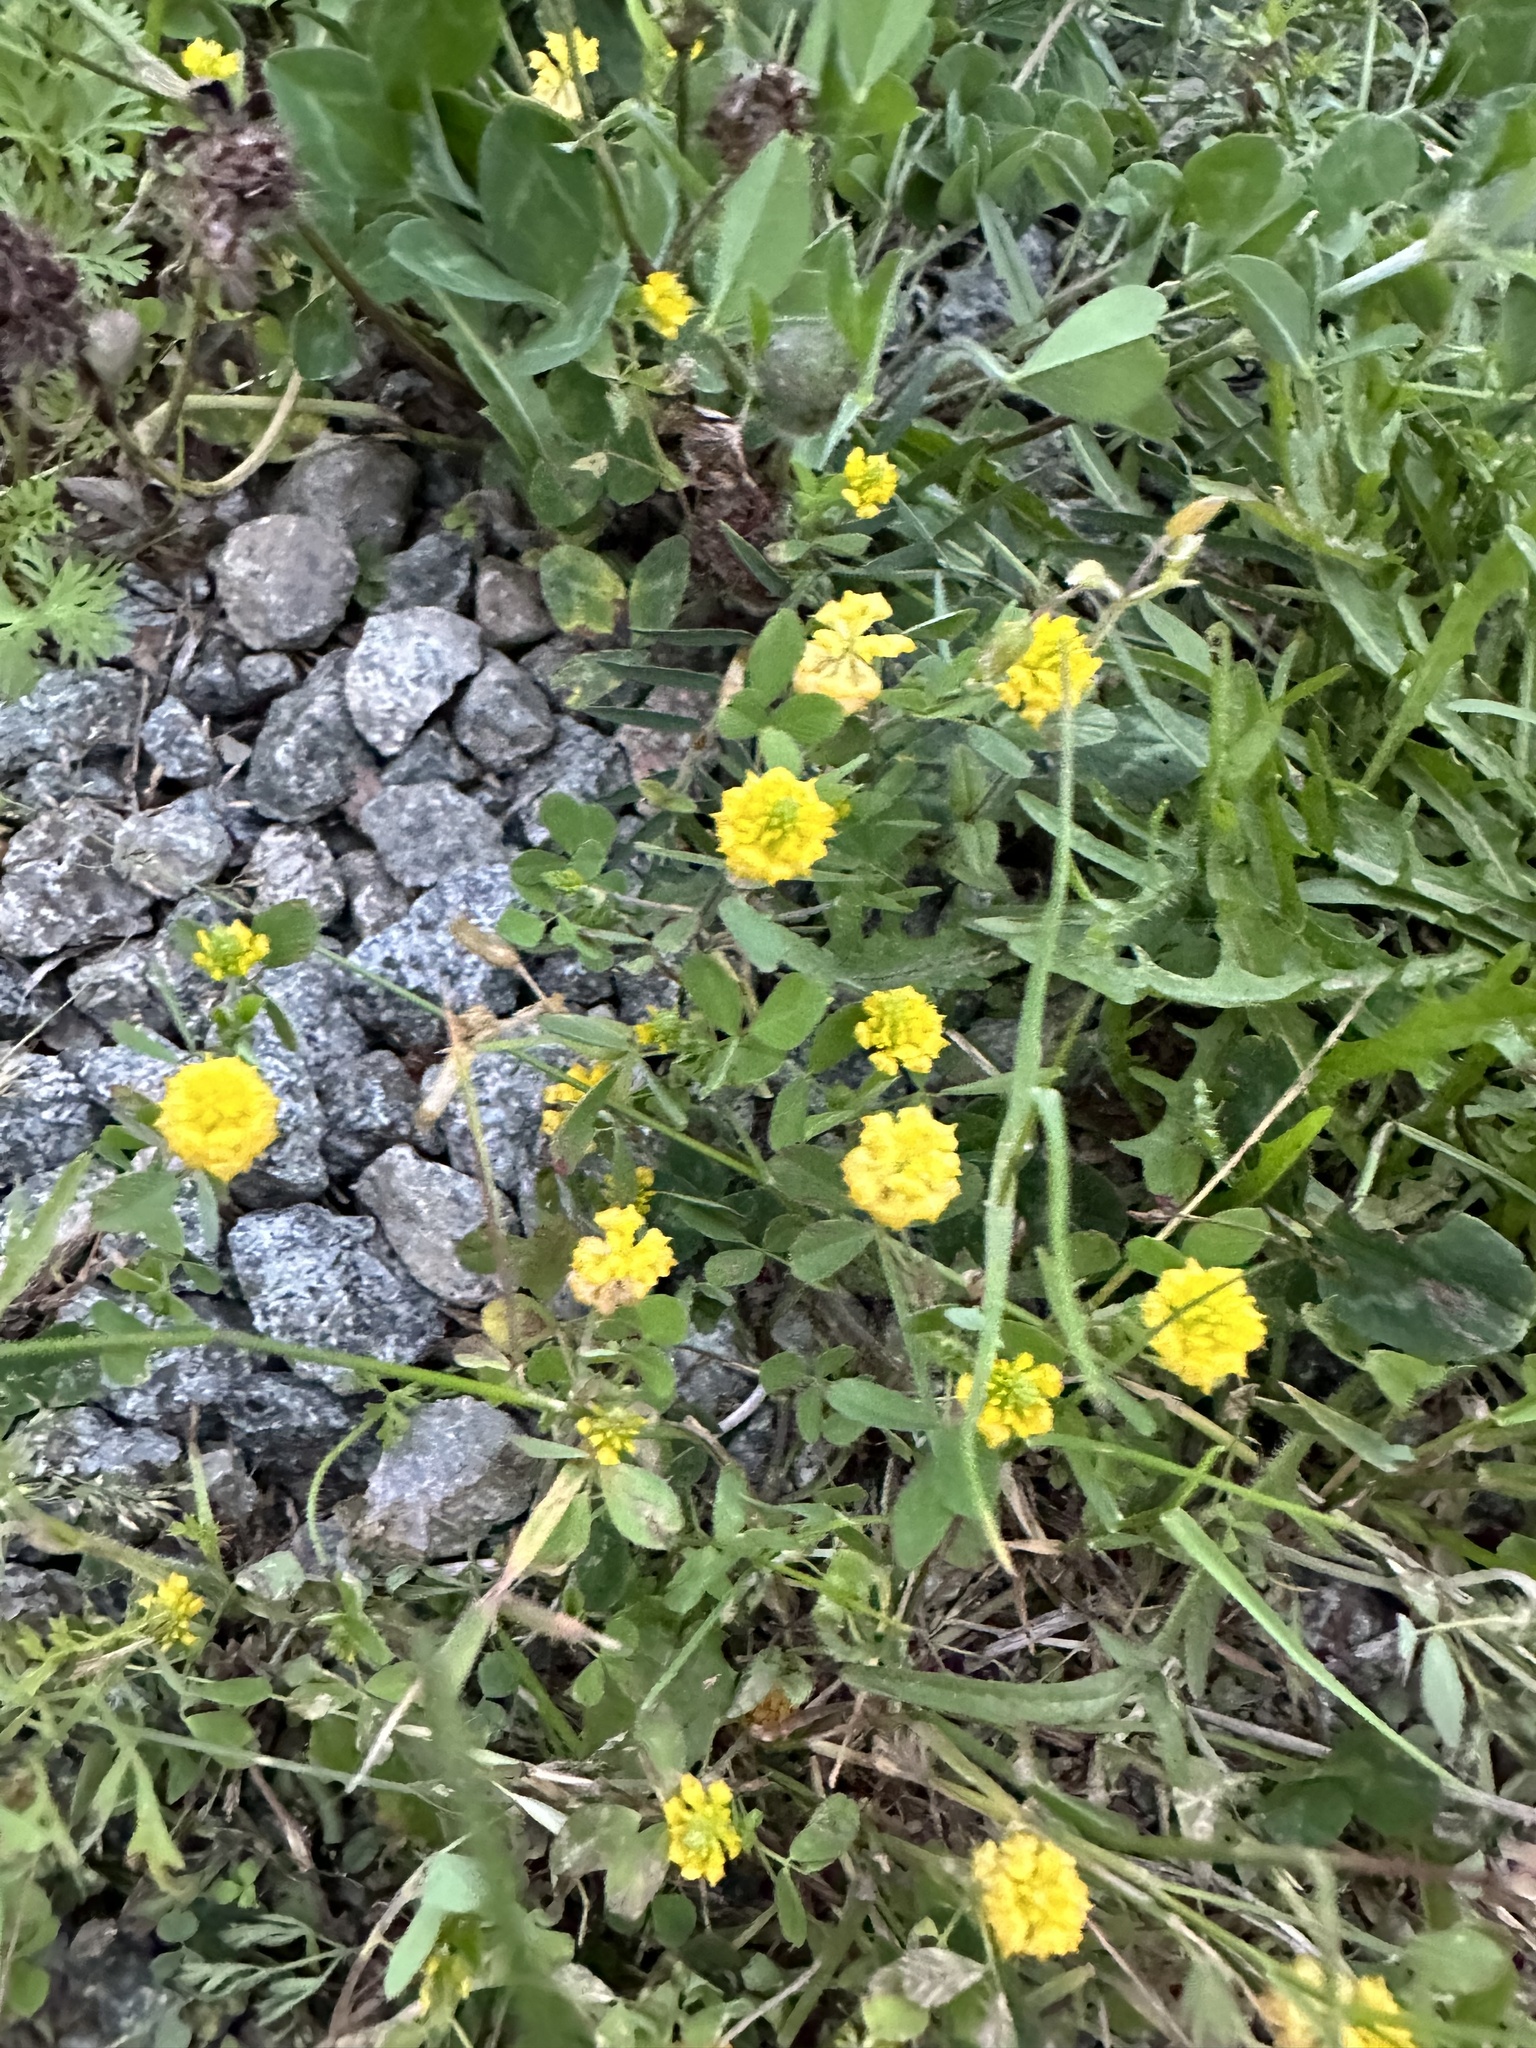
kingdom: Plantae
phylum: Tracheophyta
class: Magnoliopsida
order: Fabales
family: Fabaceae
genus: Trifolium
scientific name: Trifolium campestre
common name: Field clover
